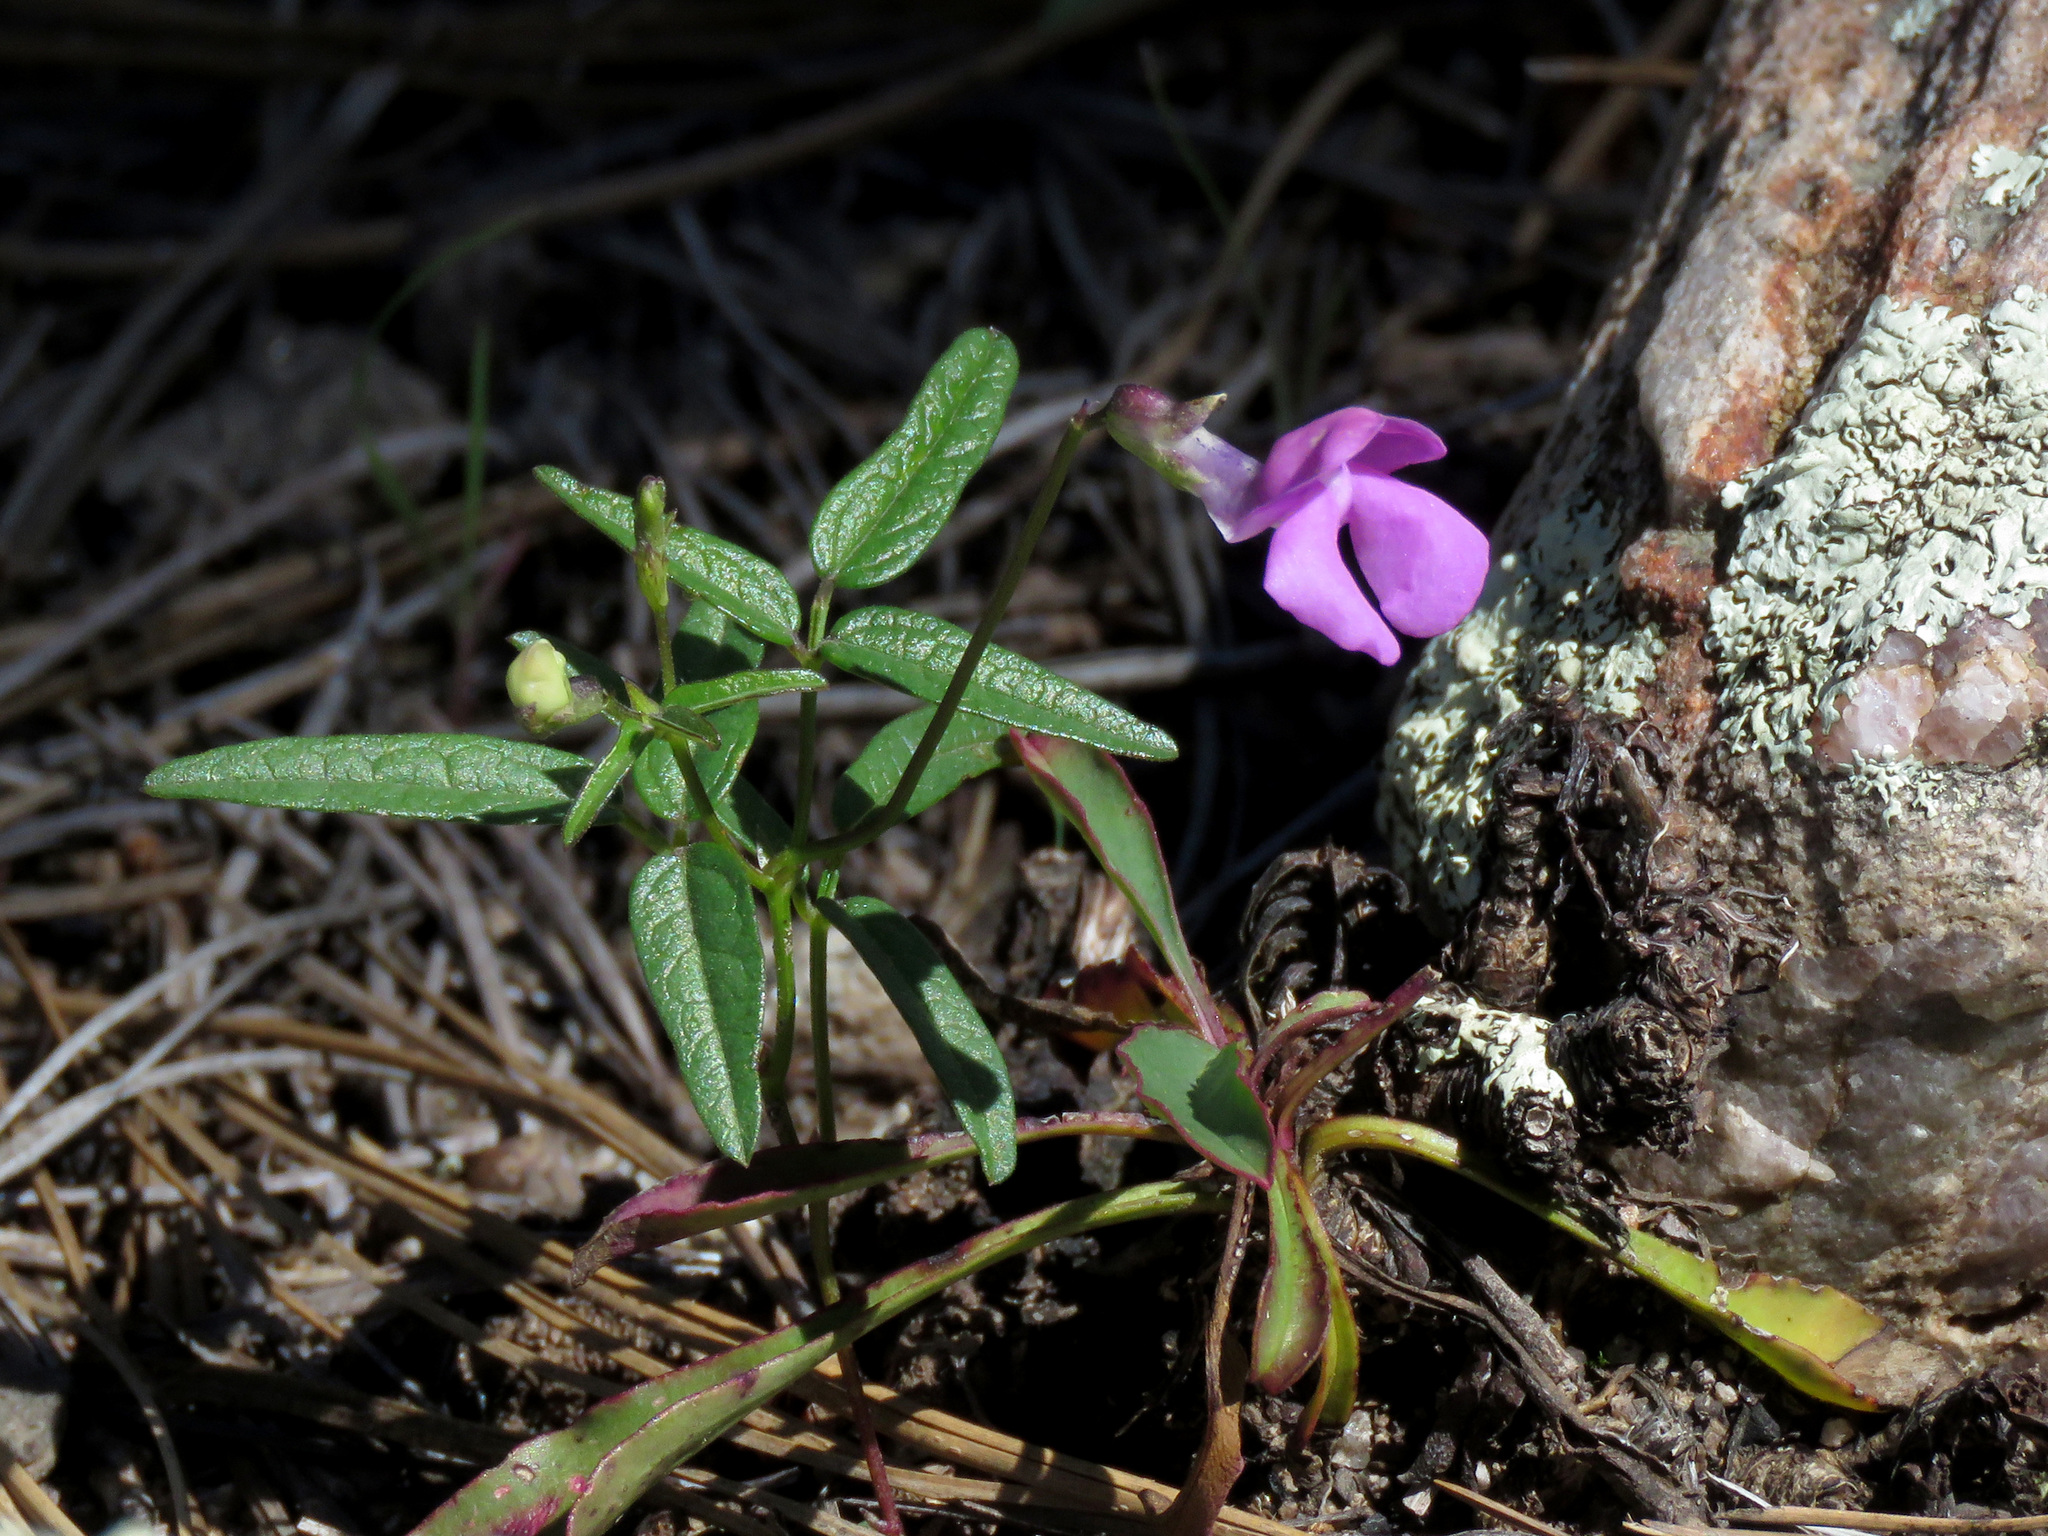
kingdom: Plantae
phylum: Tracheophyta
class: Magnoliopsida
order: Fabales
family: Fabaceae
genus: Phaseolus
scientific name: Phaseolus parvulus
